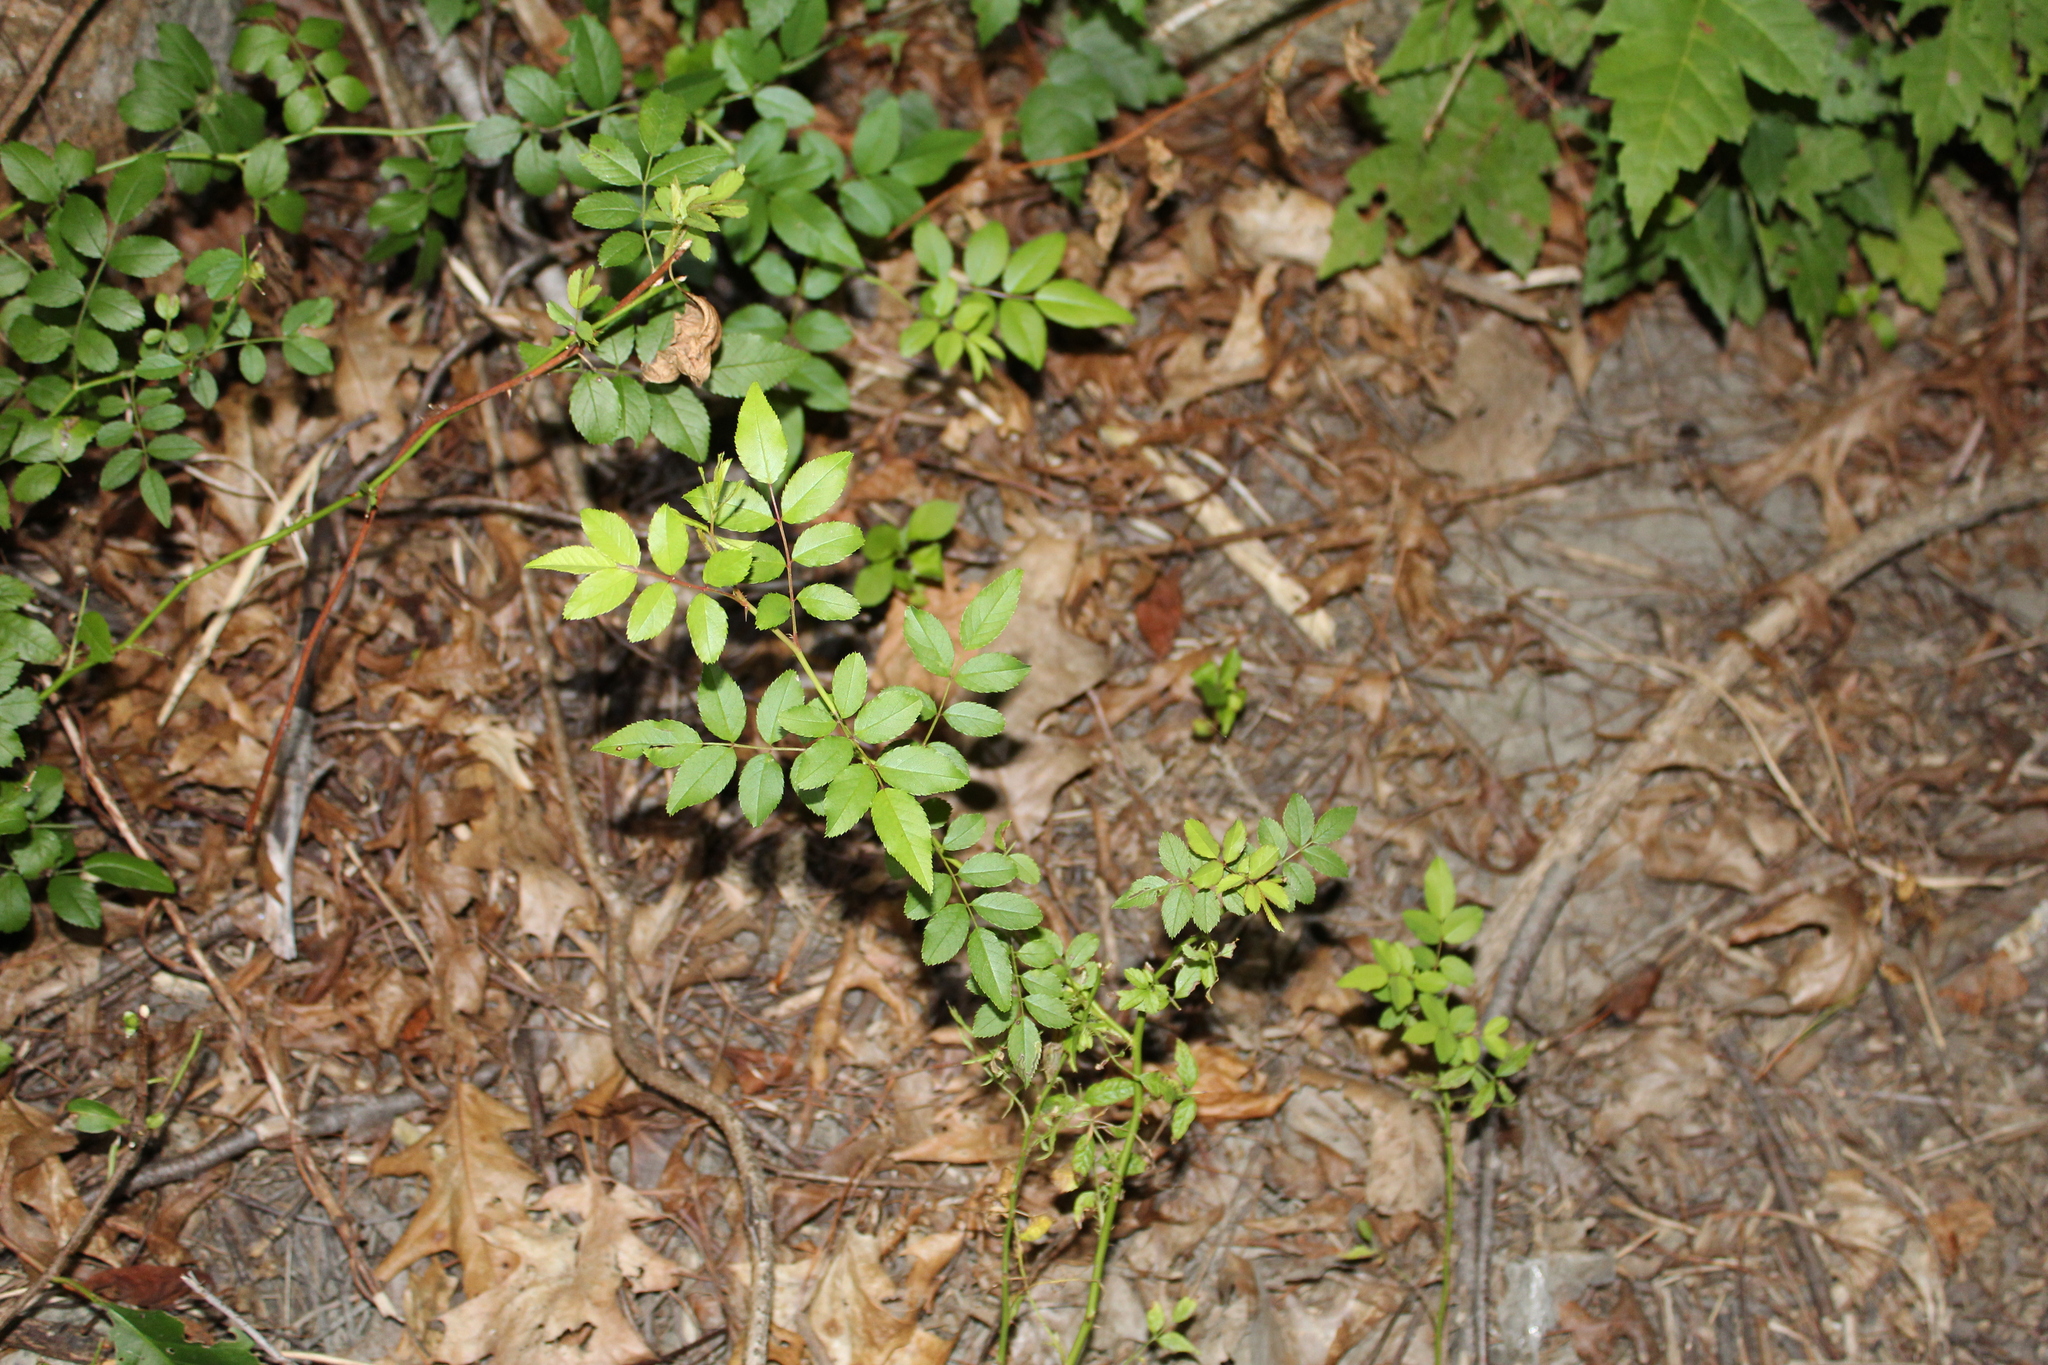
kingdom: Plantae
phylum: Tracheophyta
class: Magnoliopsida
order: Rosales
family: Rosaceae
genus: Rosa
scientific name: Rosa multiflora
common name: Multiflora rose
